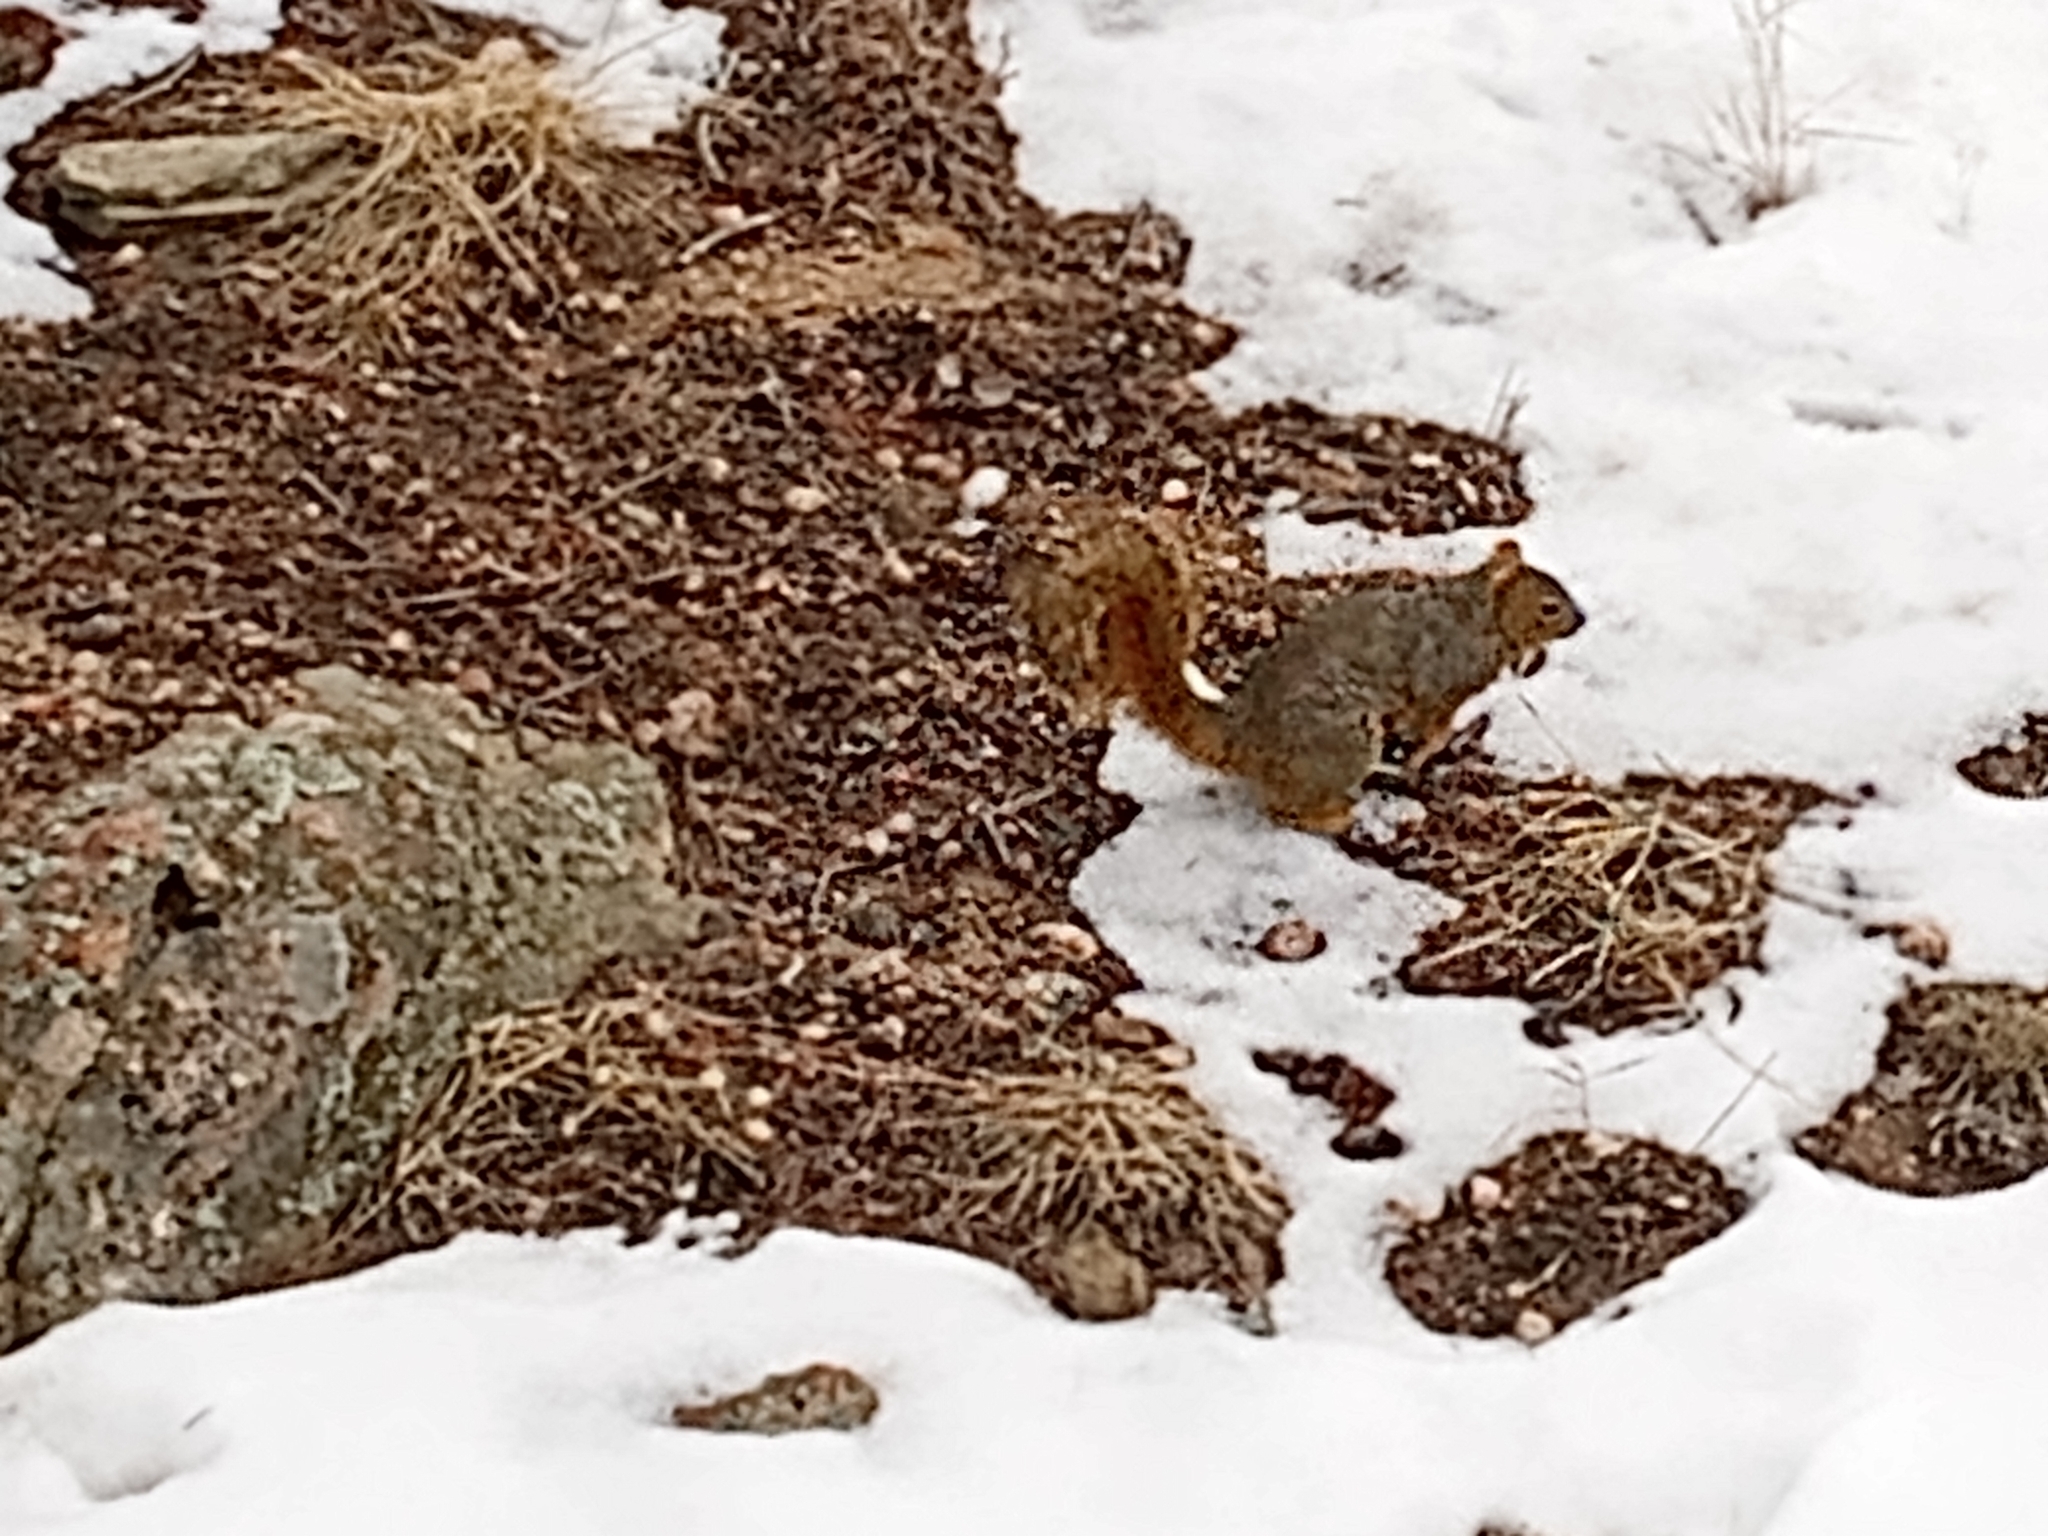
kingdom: Animalia
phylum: Chordata
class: Mammalia
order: Rodentia
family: Sciuridae
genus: Sciurus
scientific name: Sciurus niger
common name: Fox squirrel
